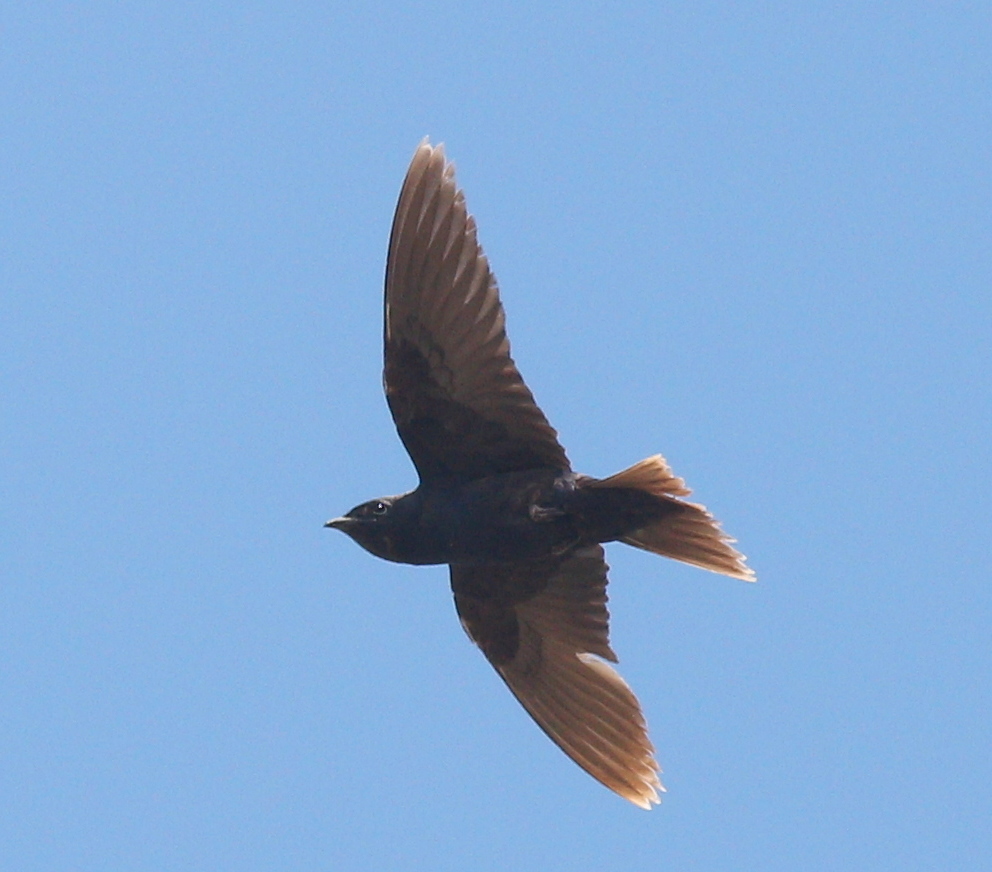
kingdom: Animalia
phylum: Chordata
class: Aves
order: Passeriformes
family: Hirundinidae
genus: Progne
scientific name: Progne elegans
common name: Southern martin
